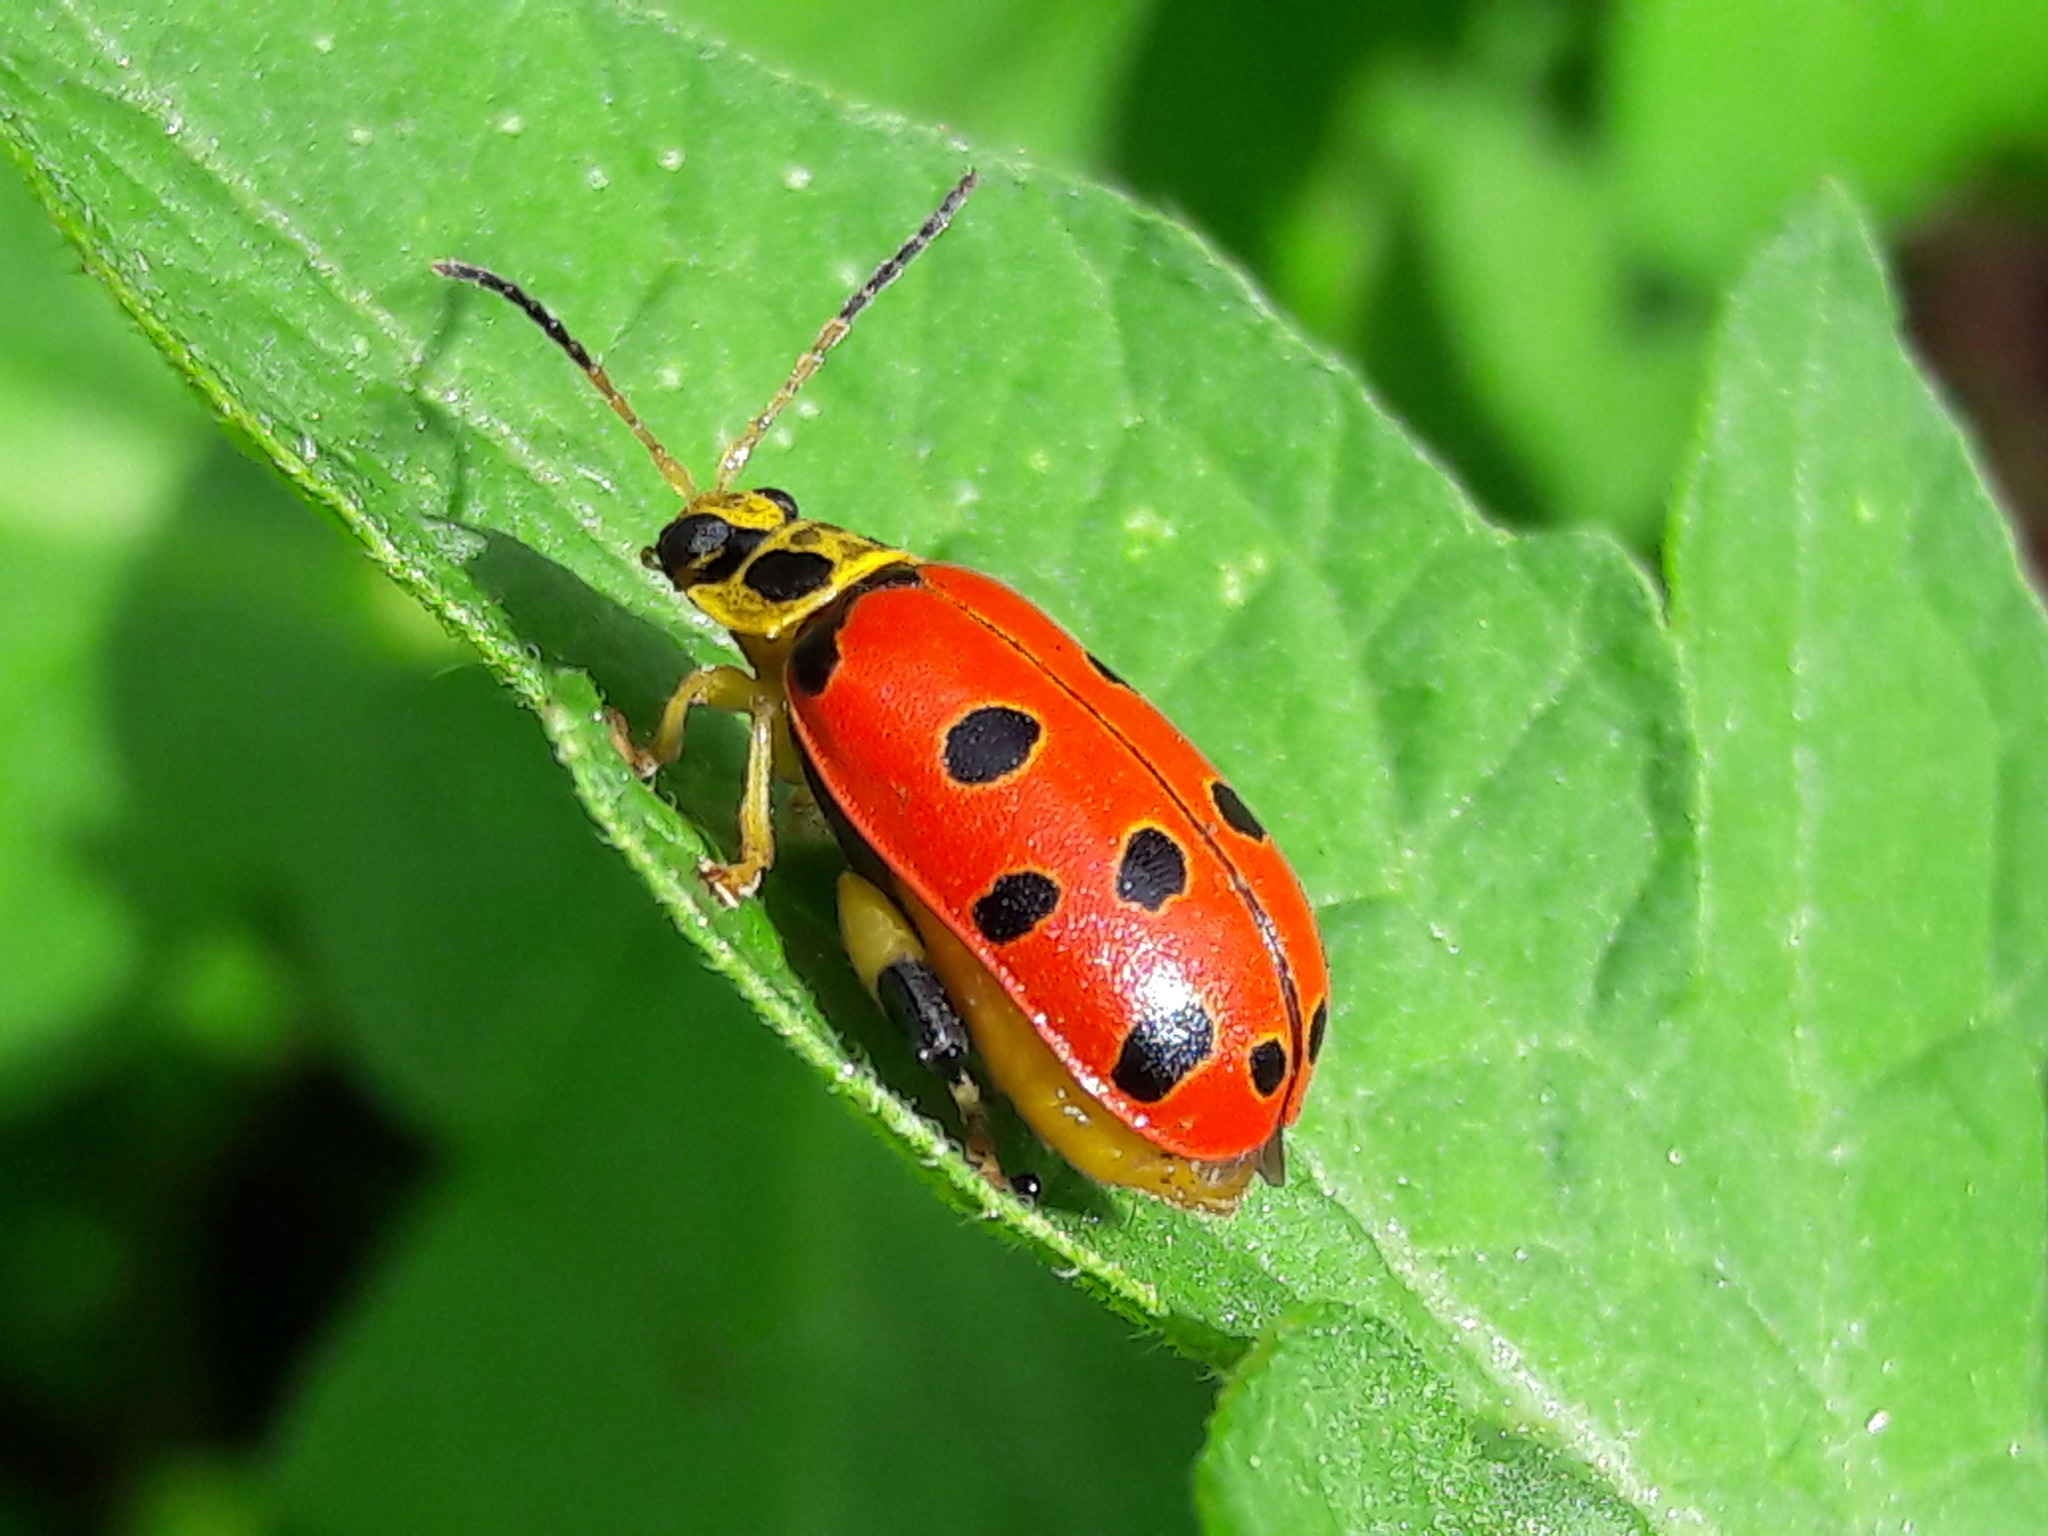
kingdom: Animalia
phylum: Arthropoda
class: Insecta
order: Coleoptera
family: Chrysomelidae
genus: Alagoasa
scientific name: Alagoasa
